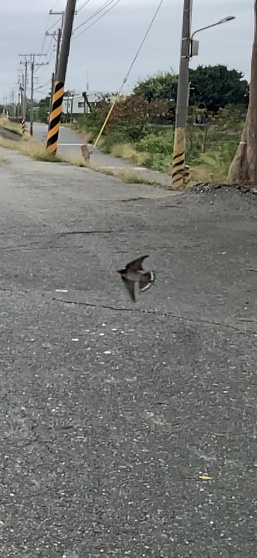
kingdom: Animalia
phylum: Chordata
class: Aves
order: Passeriformes
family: Hirundinidae
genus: Hirundo
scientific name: Hirundo rustica
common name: Barn swallow
